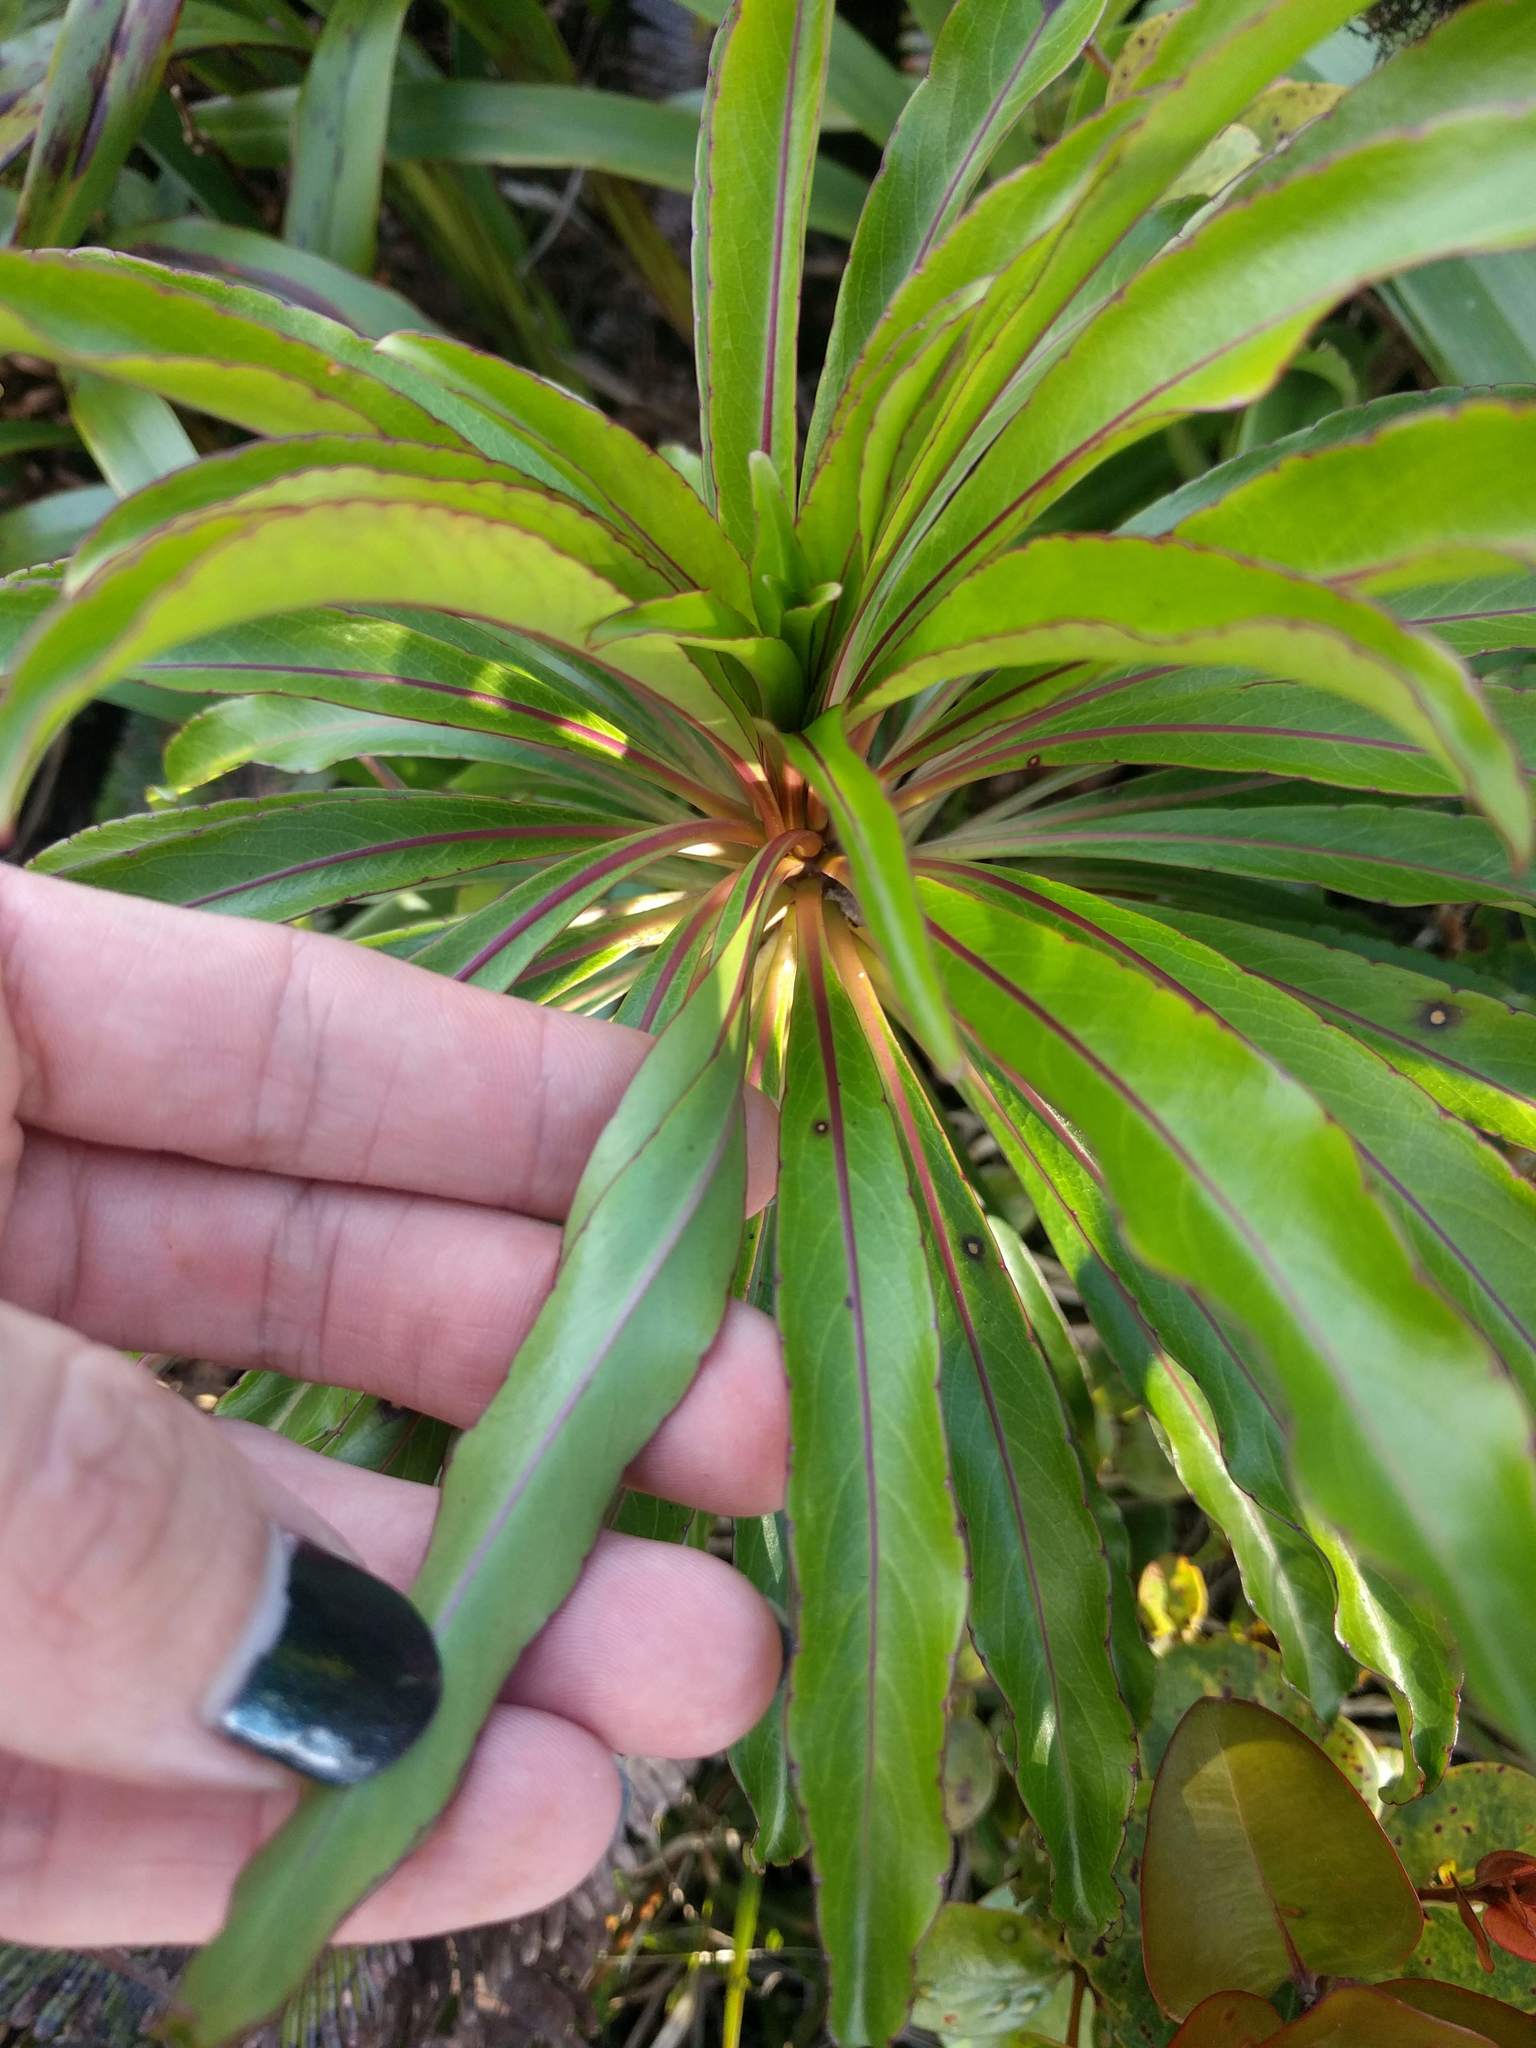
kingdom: Plantae
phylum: Tracheophyta
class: Magnoliopsida
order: Asterales
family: Campanulaceae
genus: Trematolobelia
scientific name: Trematolobelia kaalae
